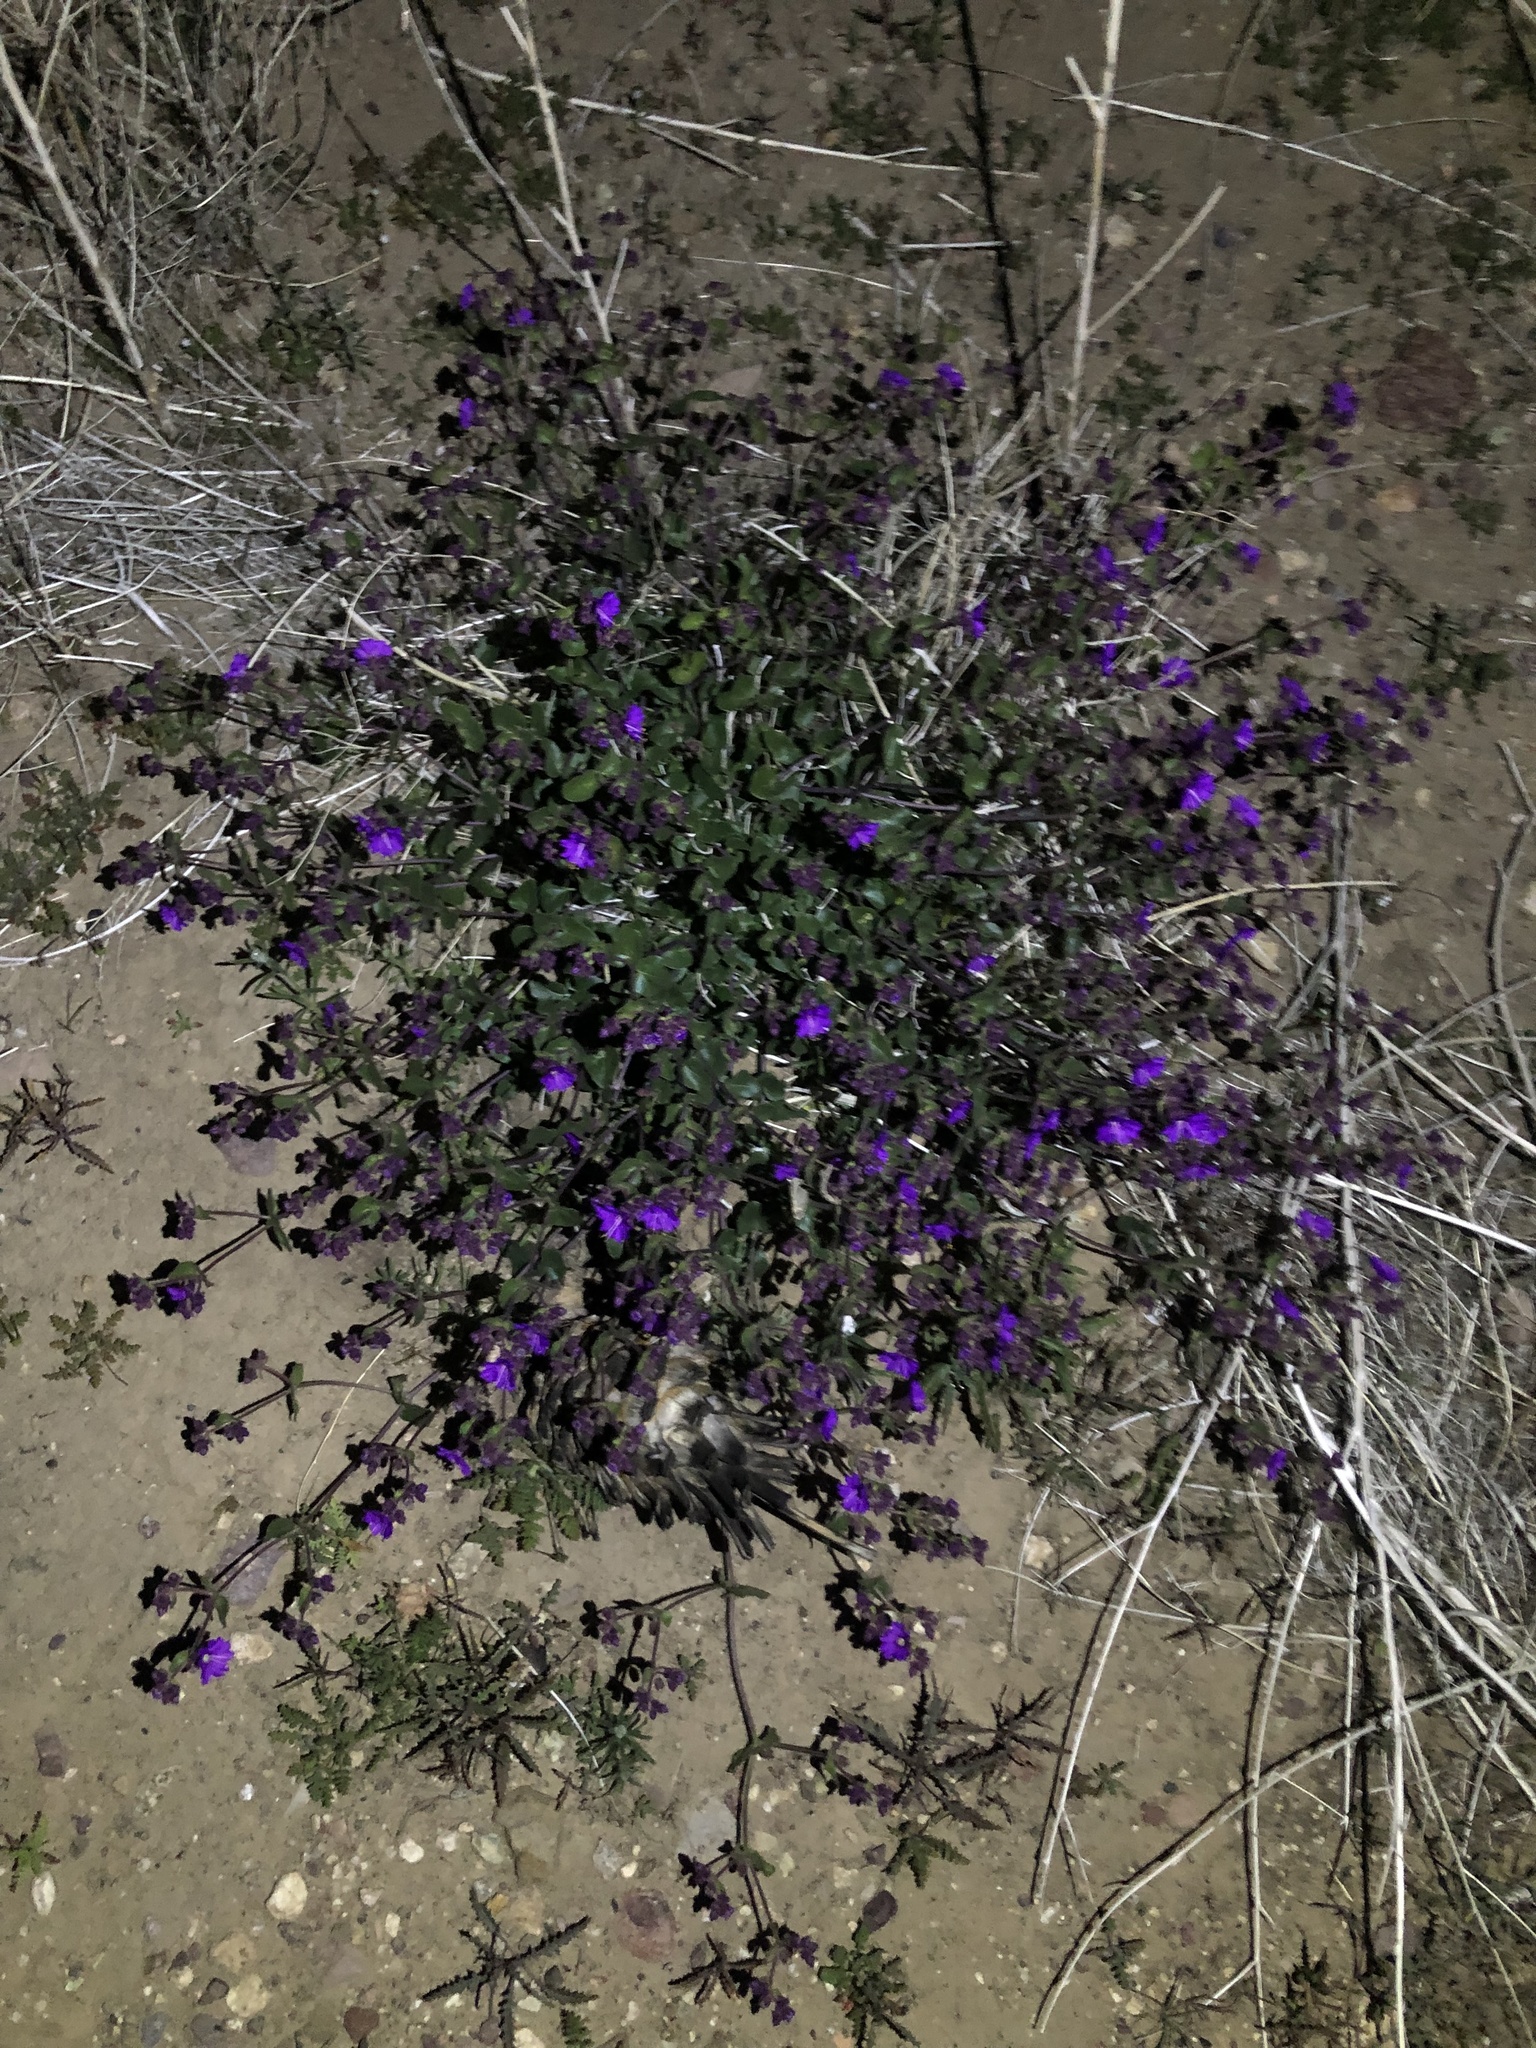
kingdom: Plantae
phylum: Tracheophyta
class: Magnoliopsida
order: Caryophyllales
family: Nyctaginaceae
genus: Mirabilis
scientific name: Mirabilis laevis
